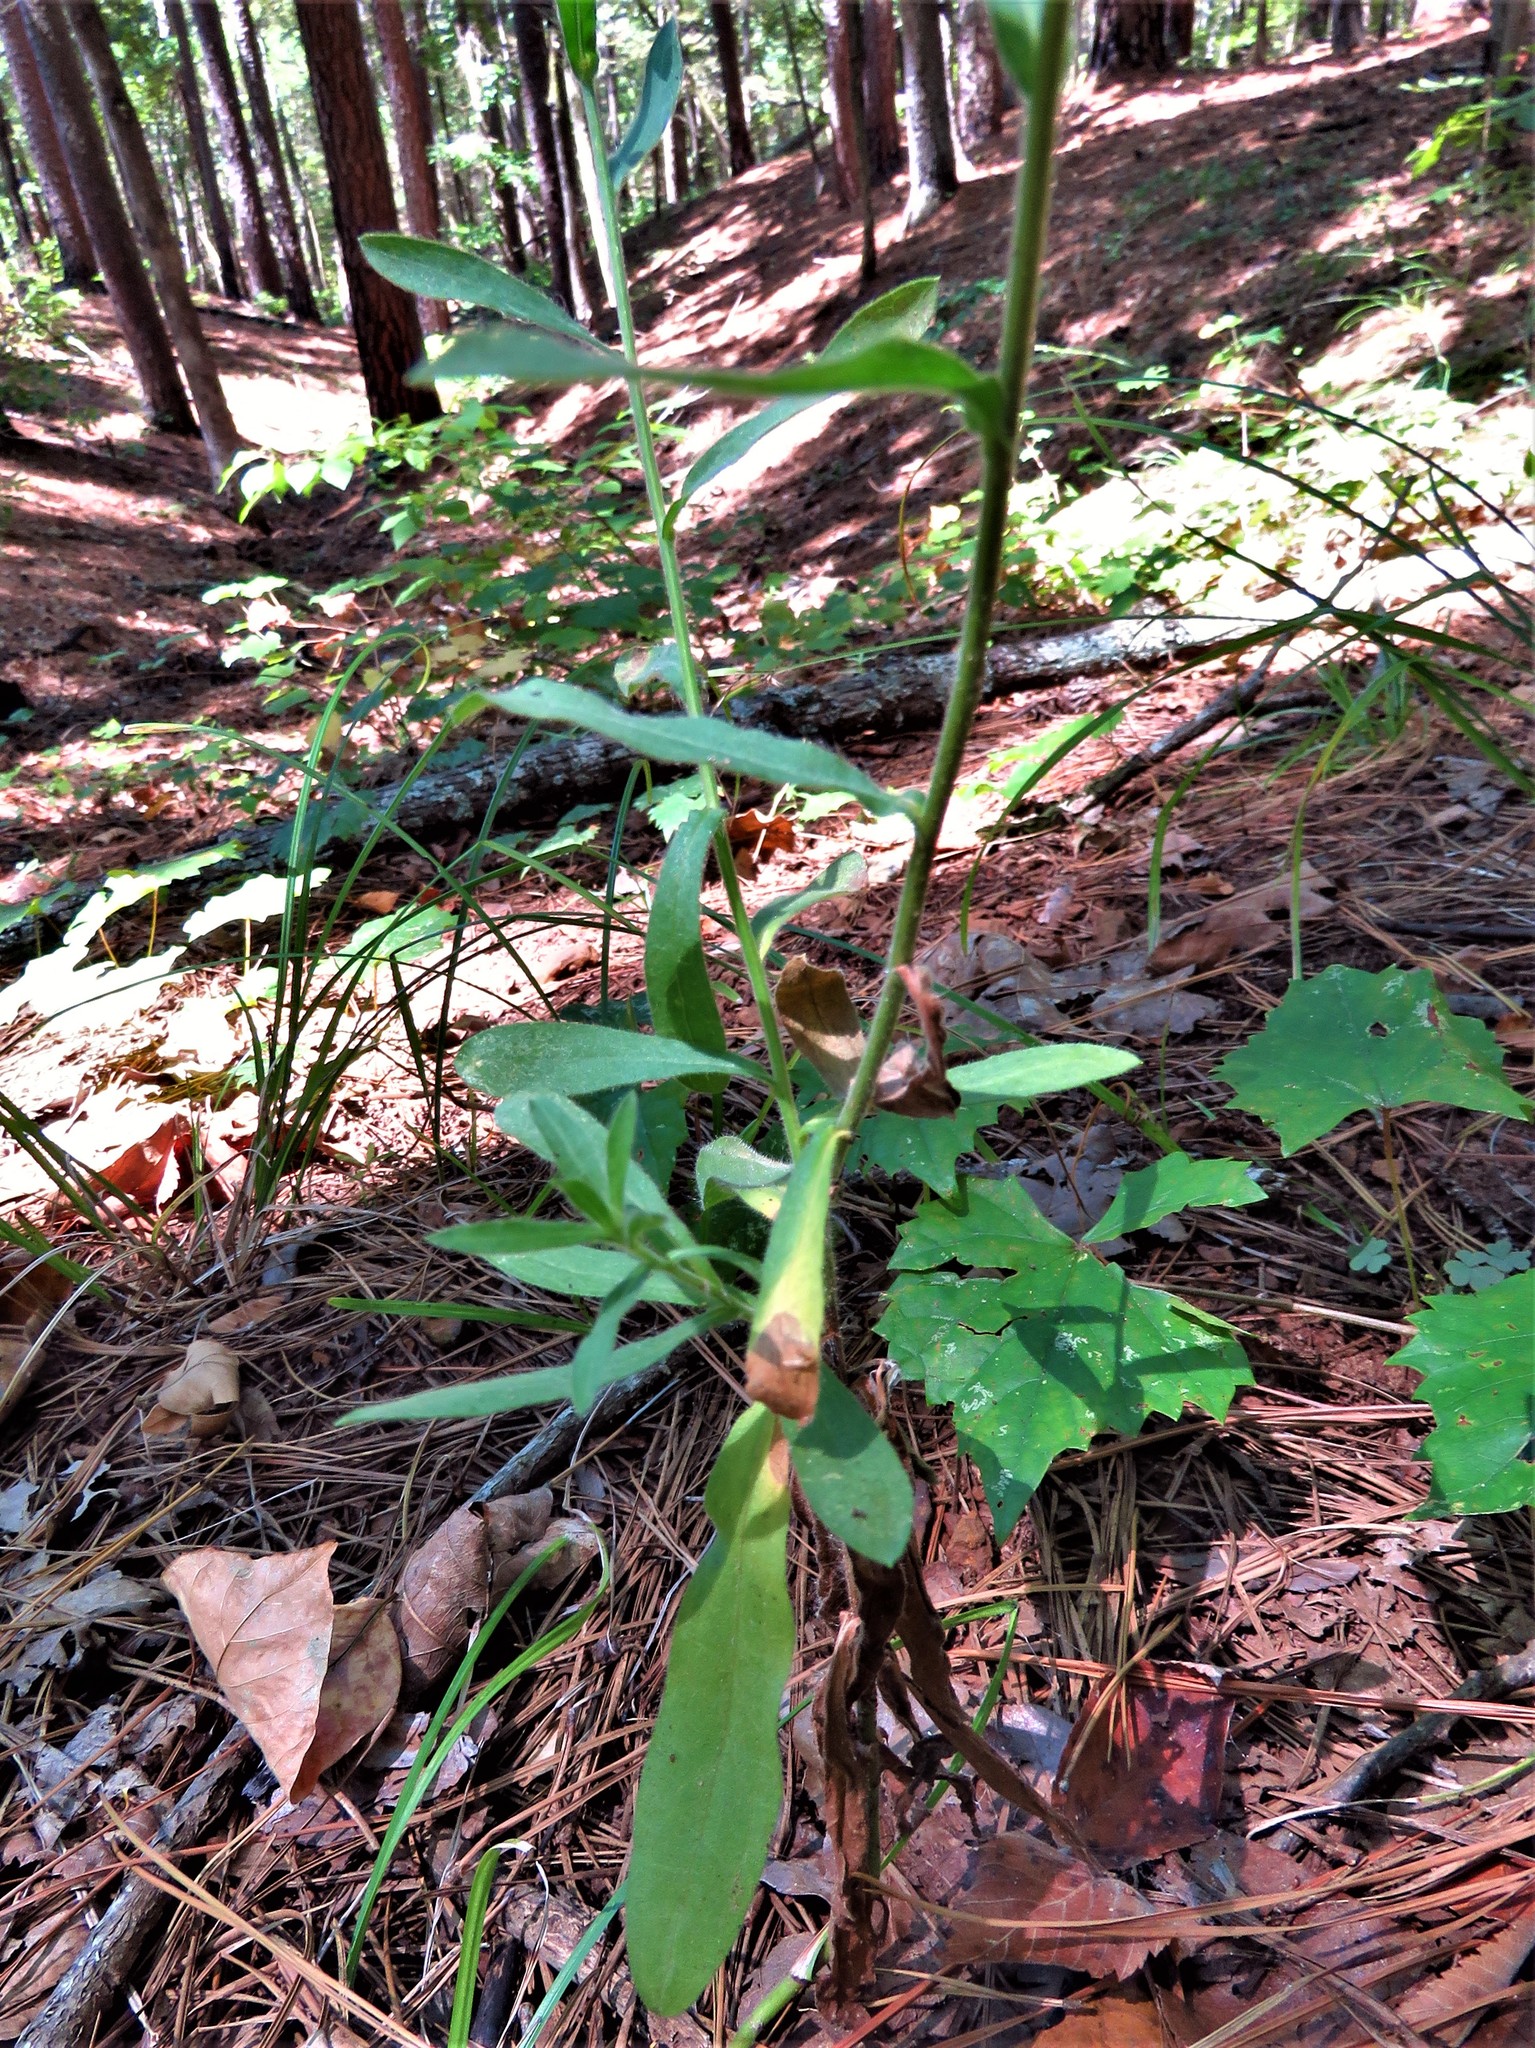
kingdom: Plantae
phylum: Tracheophyta
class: Magnoliopsida
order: Asterales
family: Asteraceae
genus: Bradburia
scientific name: Bradburia pilosa
